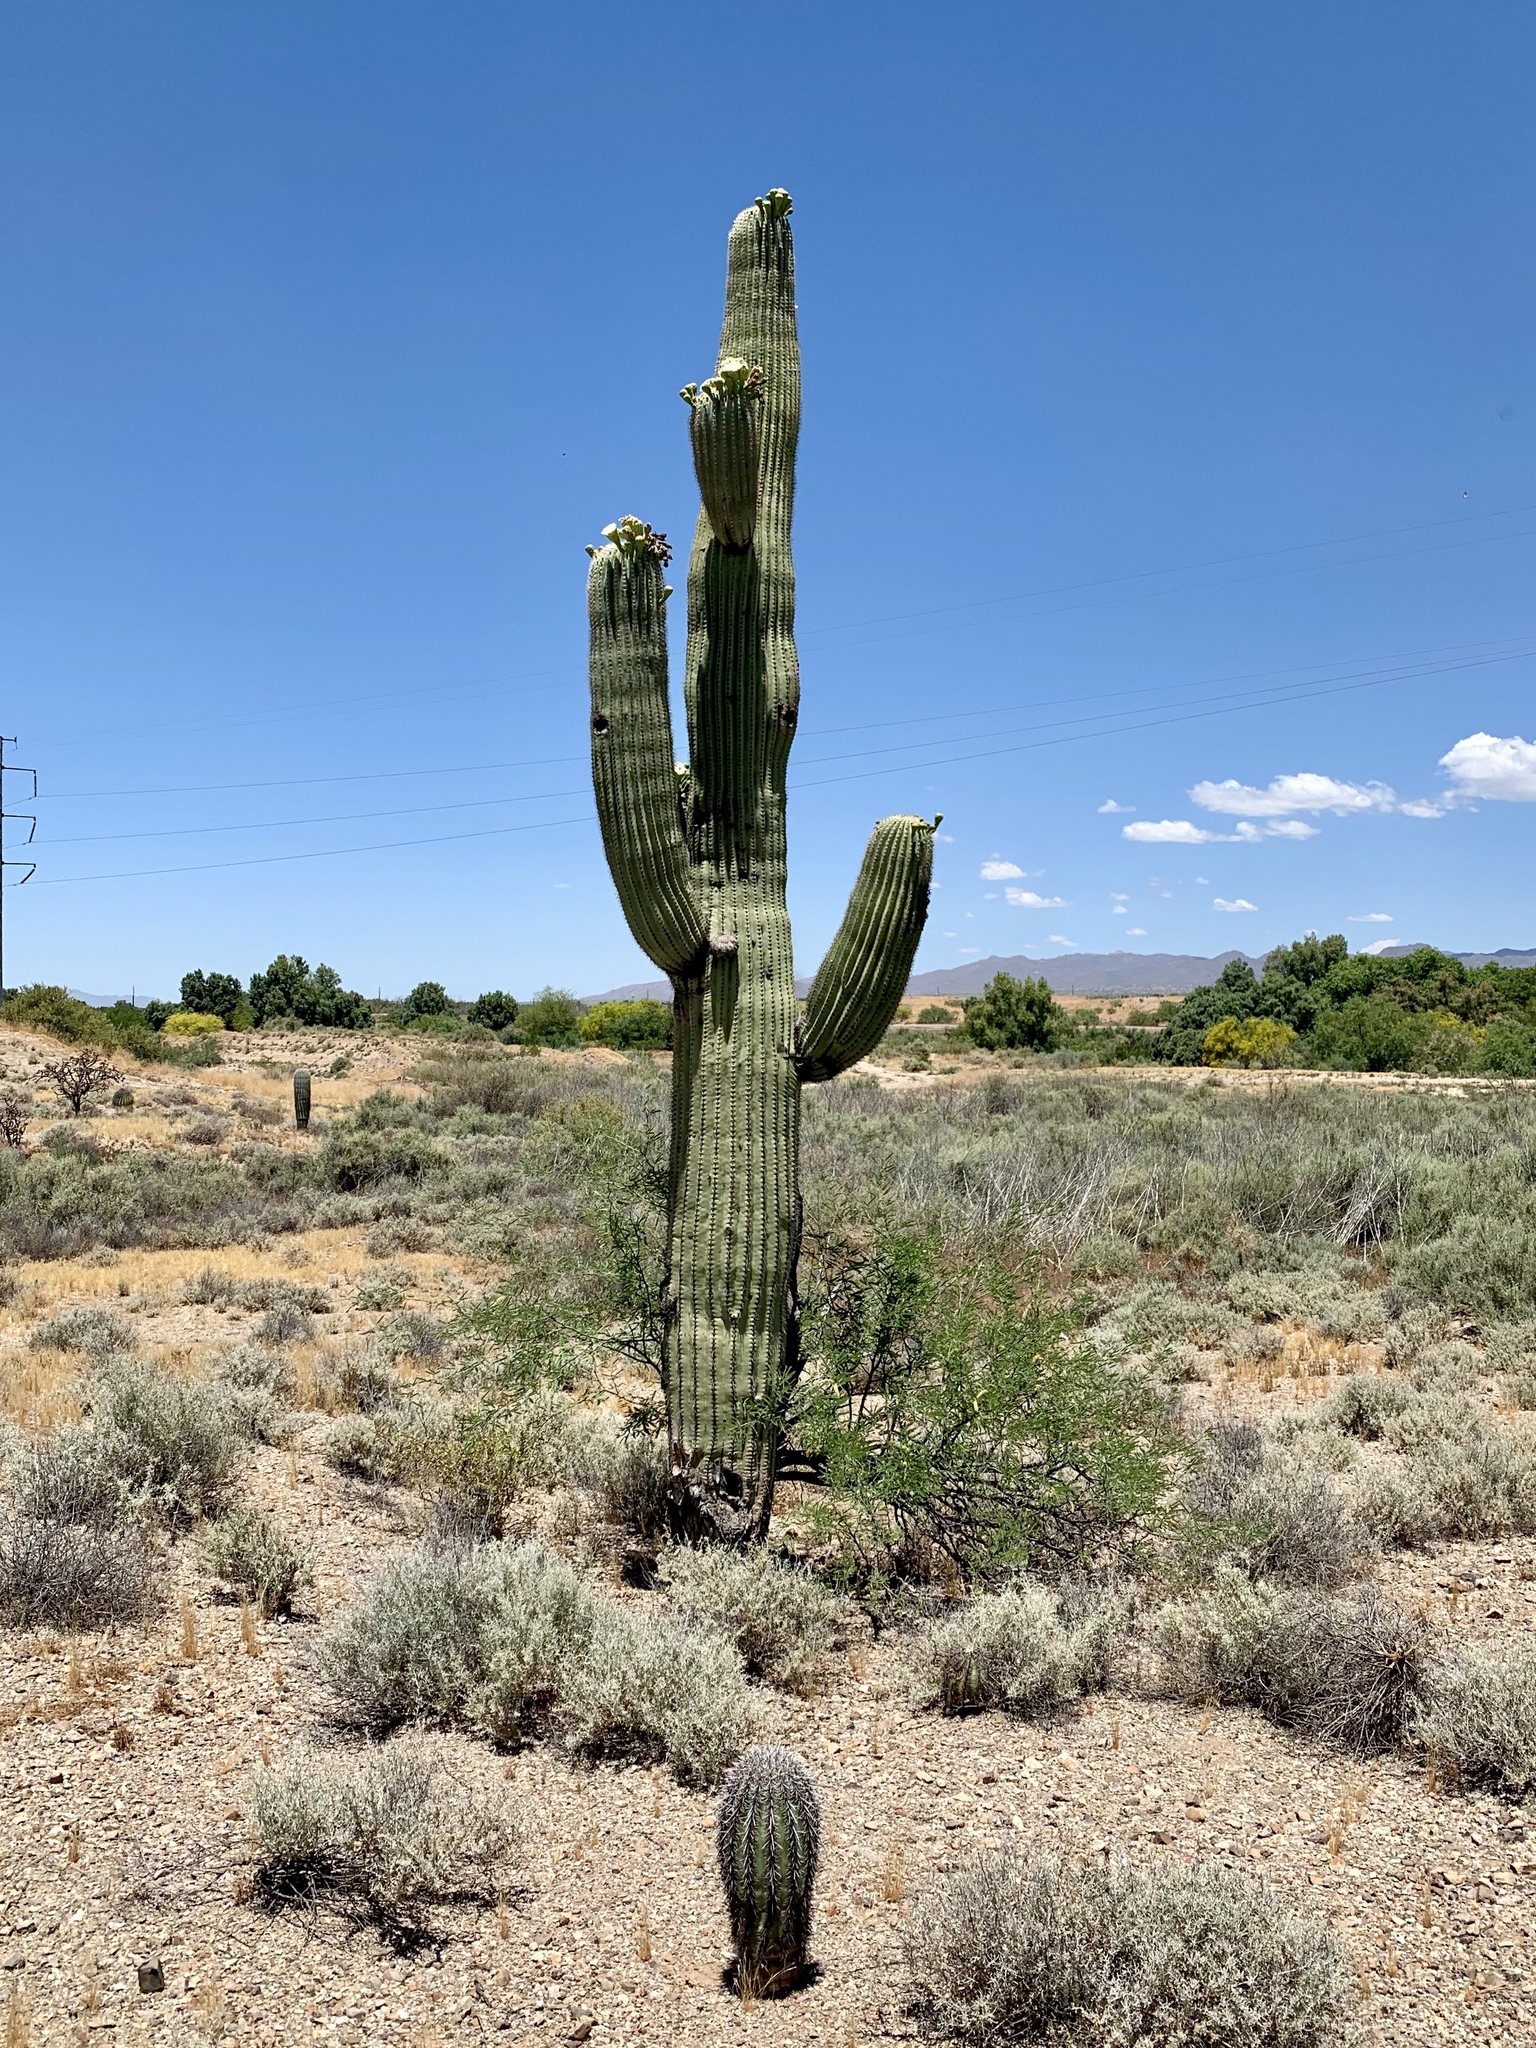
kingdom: Plantae
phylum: Tracheophyta
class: Magnoliopsida
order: Caryophyllales
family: Cactaceae
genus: Carnegiea
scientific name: Carnegiea gigantea
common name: Saguaro
